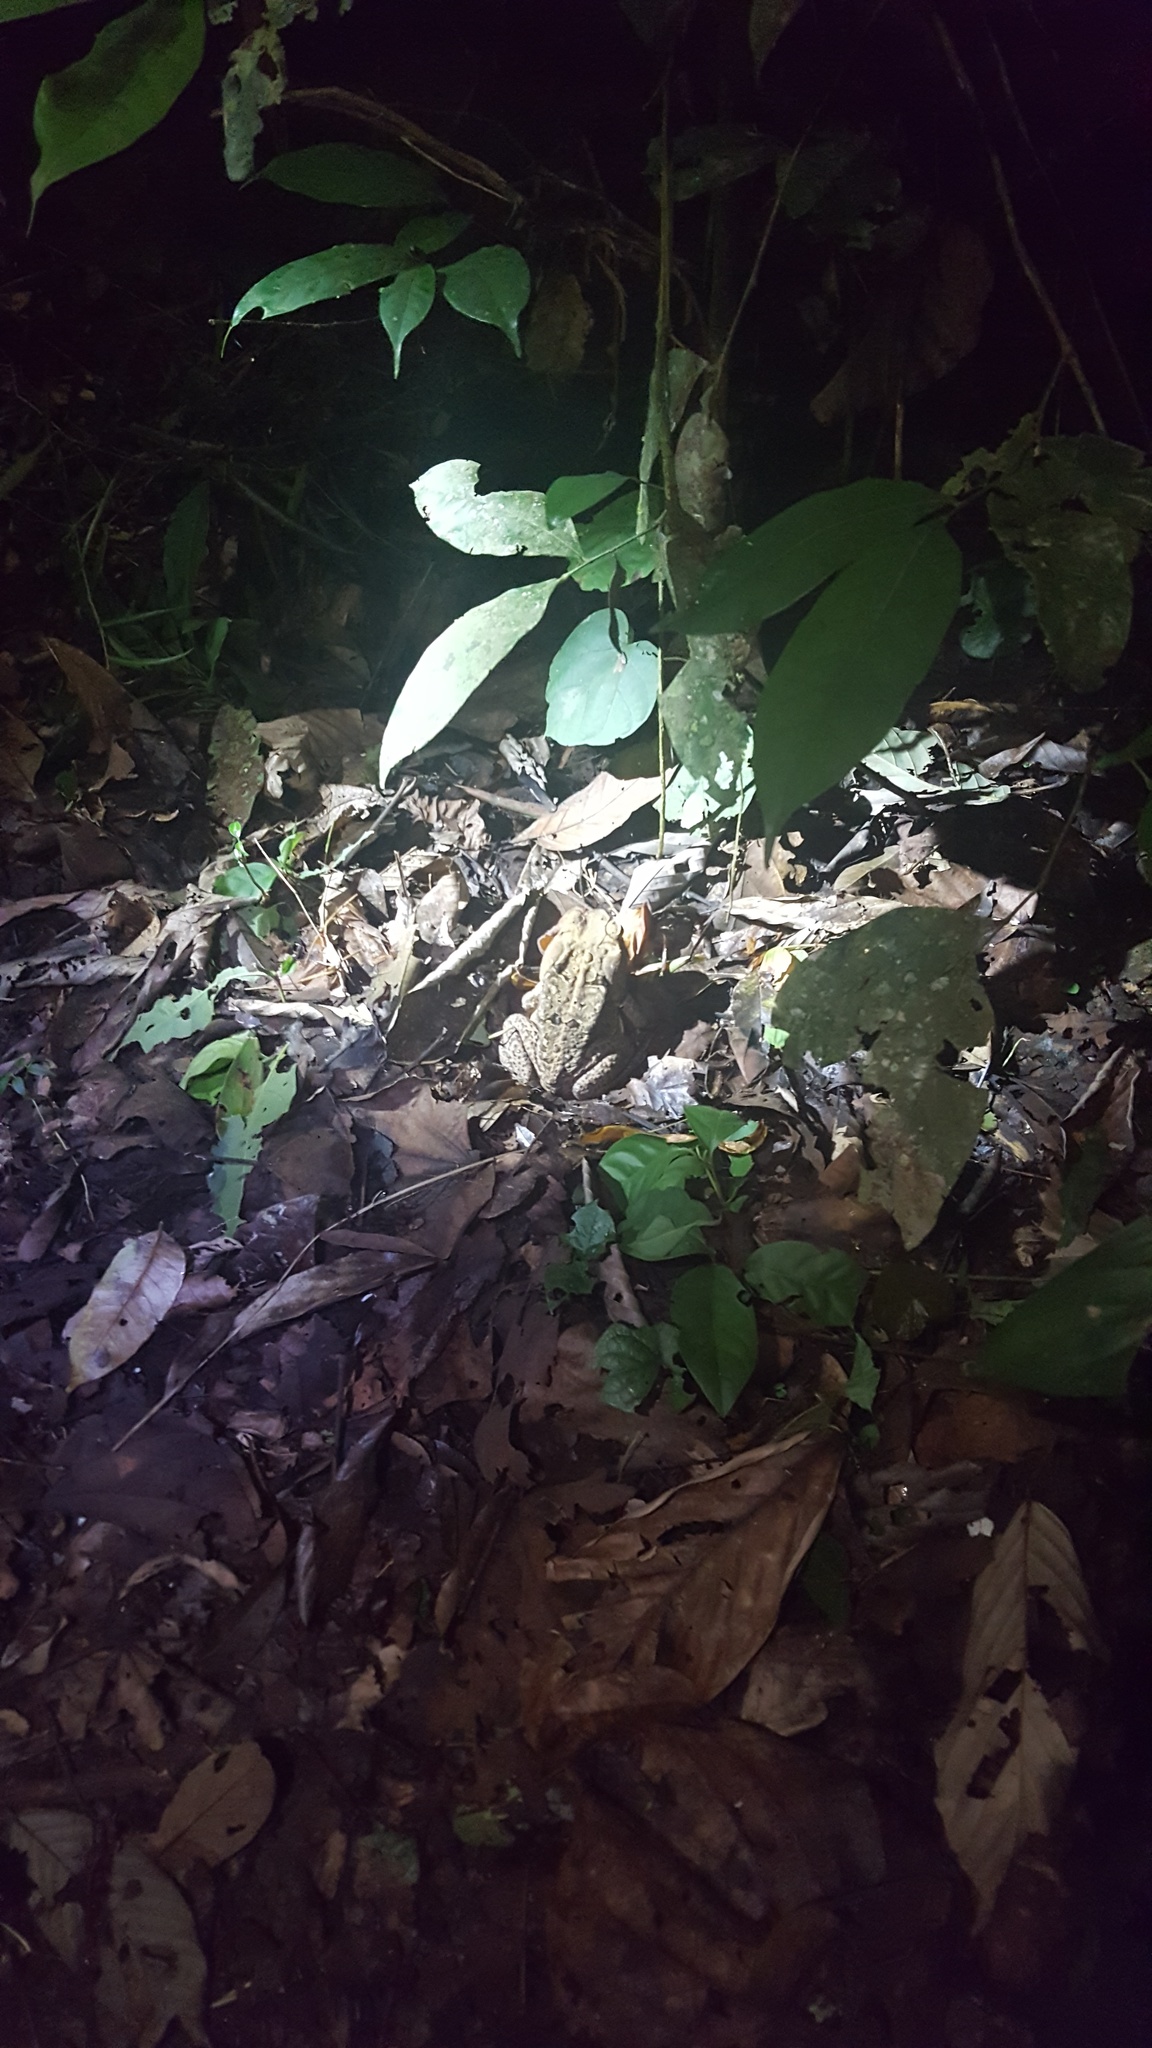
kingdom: Animalia
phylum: Chordata
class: Amphibia
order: Anura
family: Bufonidae
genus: Rhinella
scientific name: Rhinella marina
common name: Cane toad
